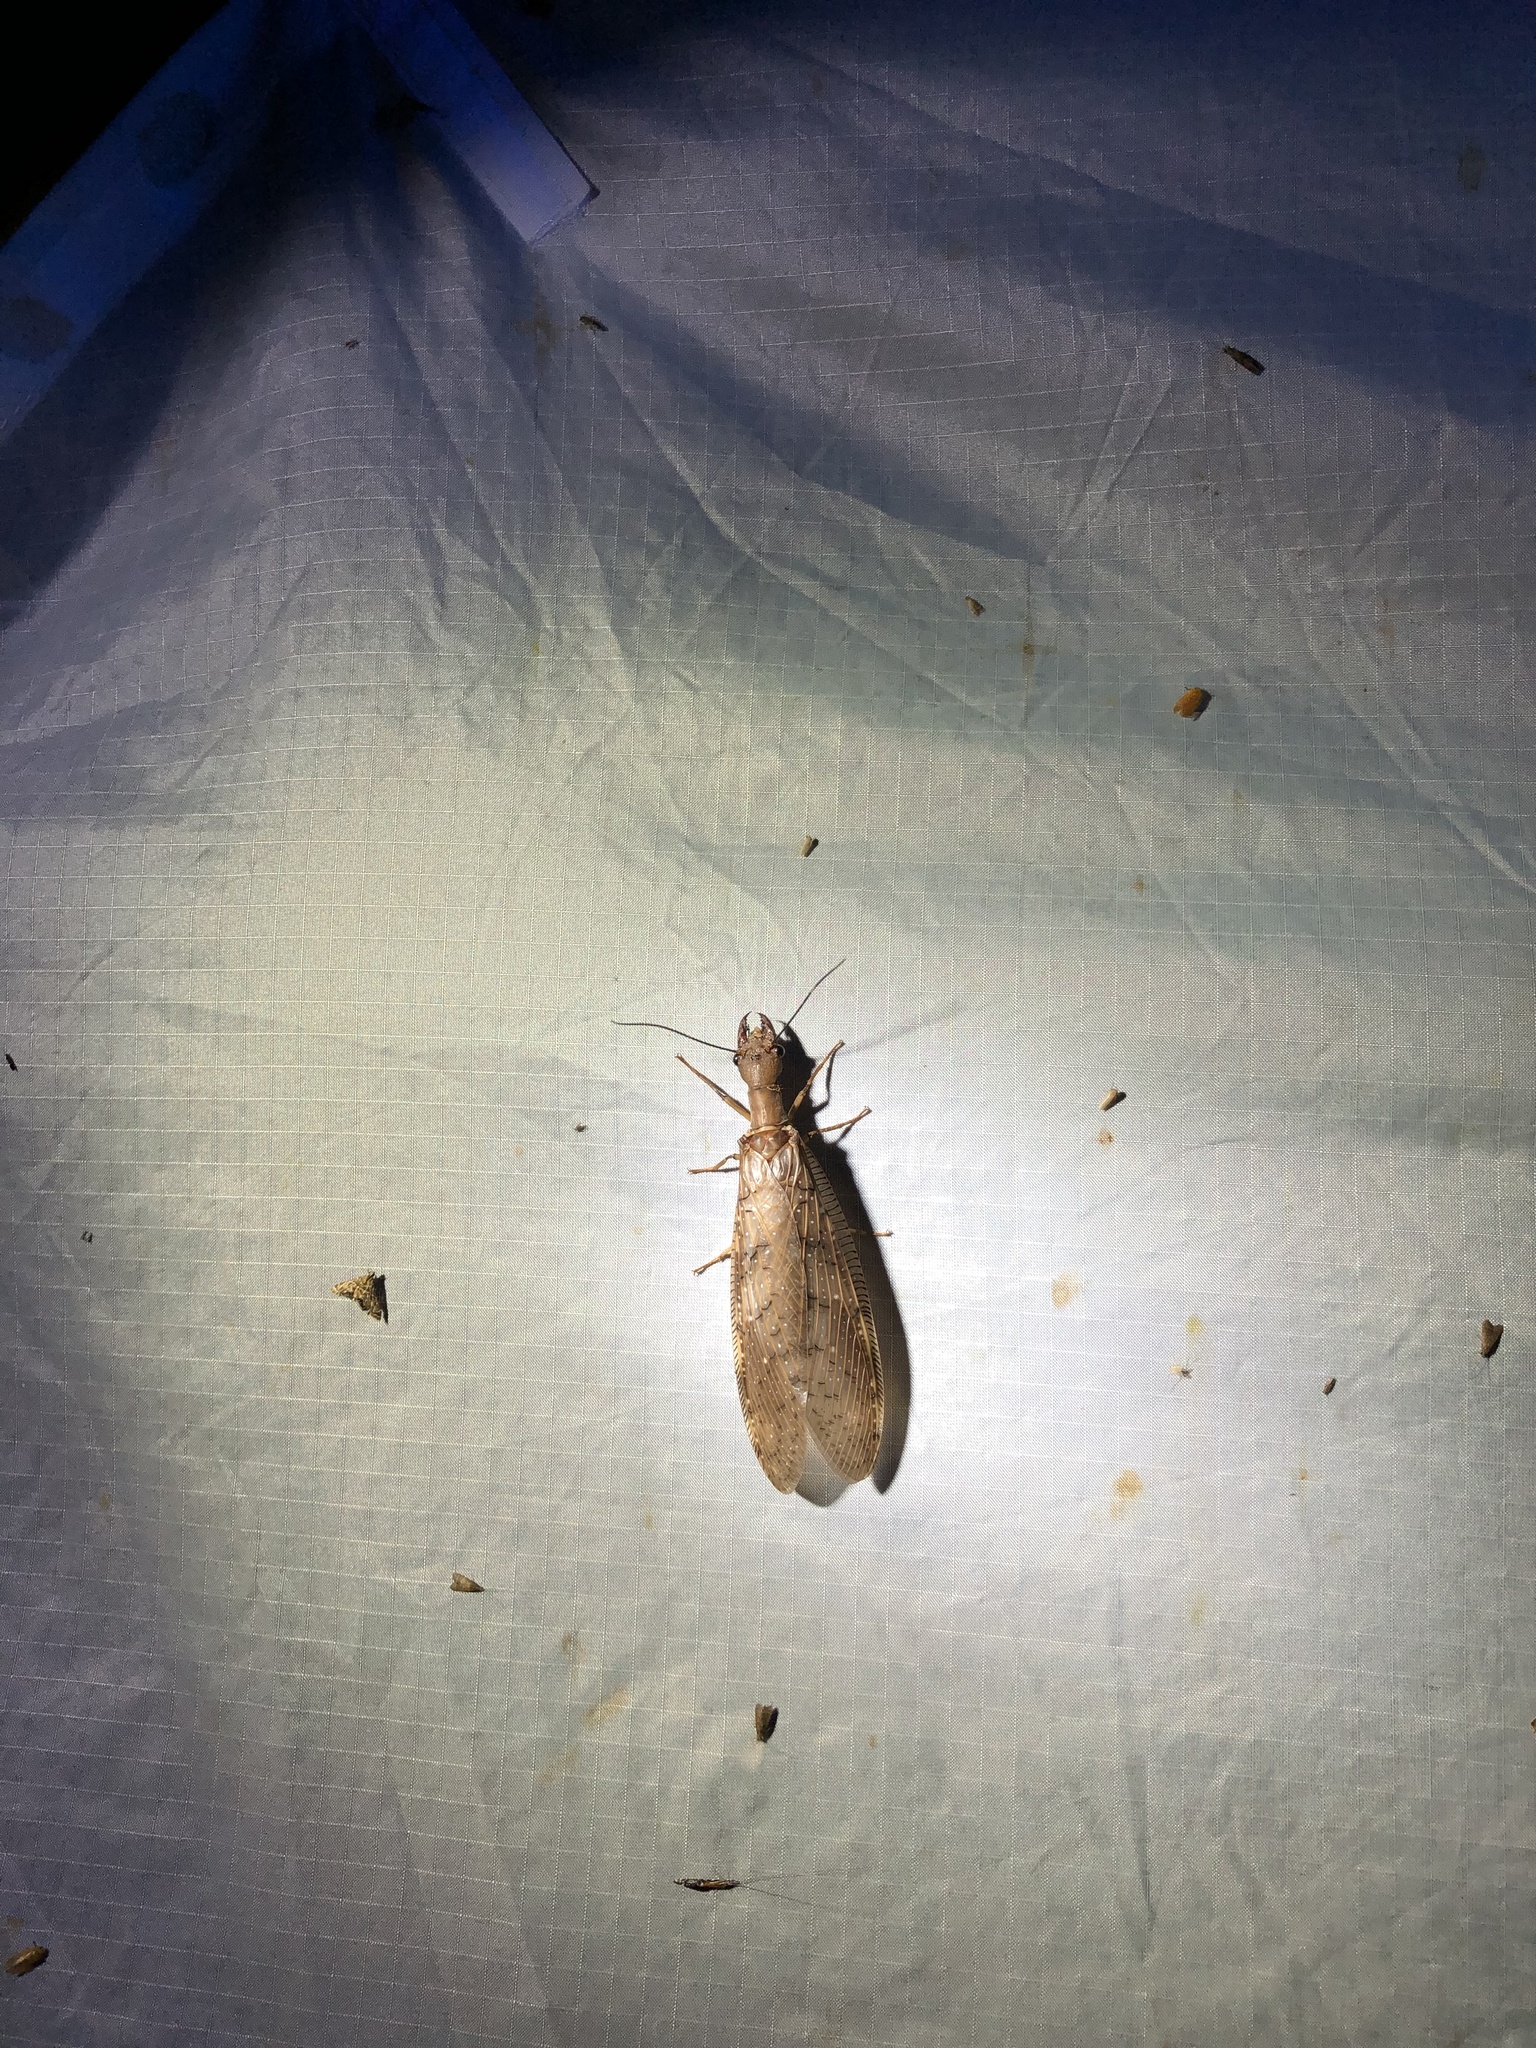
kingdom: Animalia
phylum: Arthropoda
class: Insecta
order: Megaloptera
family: Corydalidae
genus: Corydalus
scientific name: Corydalus flavicornis
